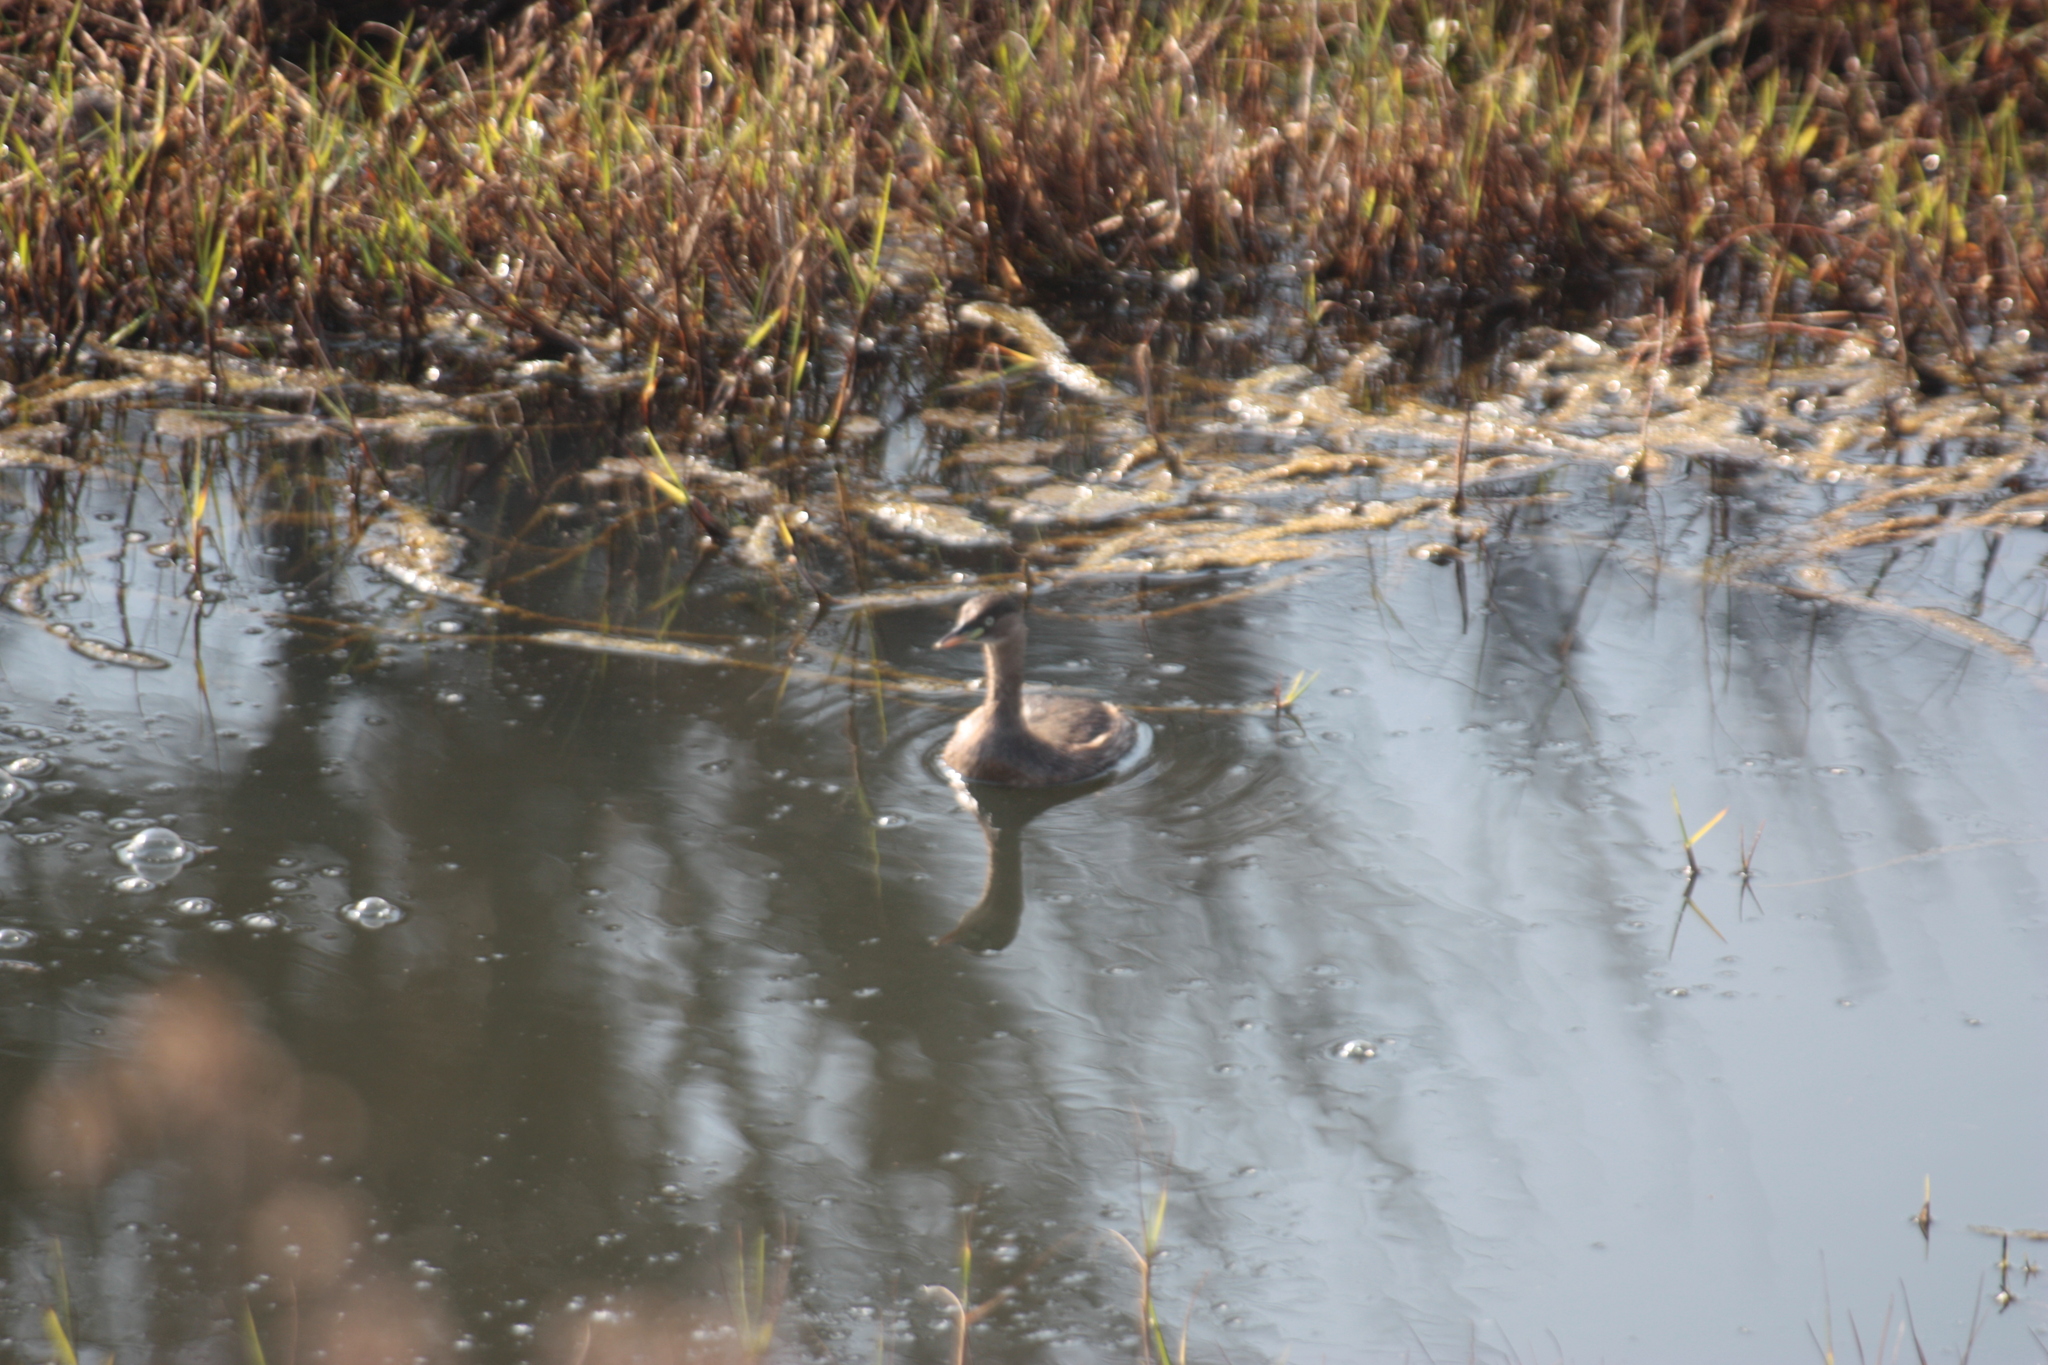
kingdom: Animalia
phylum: Chordata
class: Aves
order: Podicipediformes
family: Podicipedidae
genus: Tachybaptus
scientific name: Tachybaptus ruficollis
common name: Little grebe
